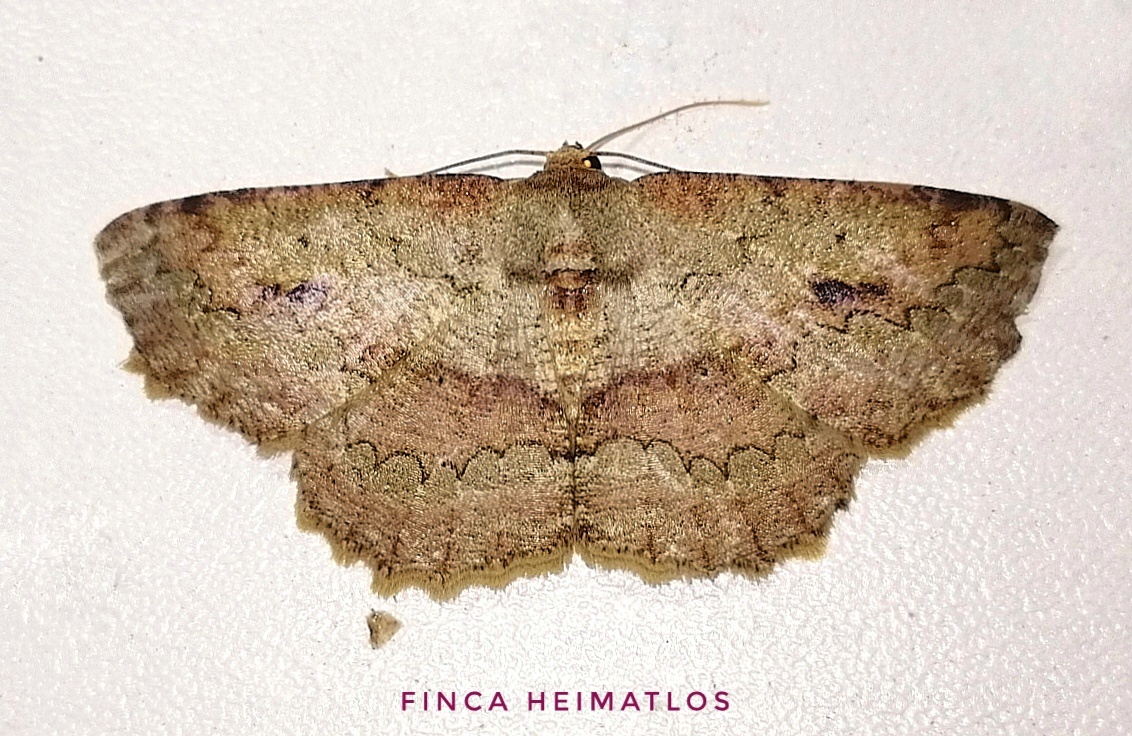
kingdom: Animalia
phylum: Arthropoda
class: Insecta
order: Lepidoptera
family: Geometridae
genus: Sabulodes
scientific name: Sabulodes boarmidaria
